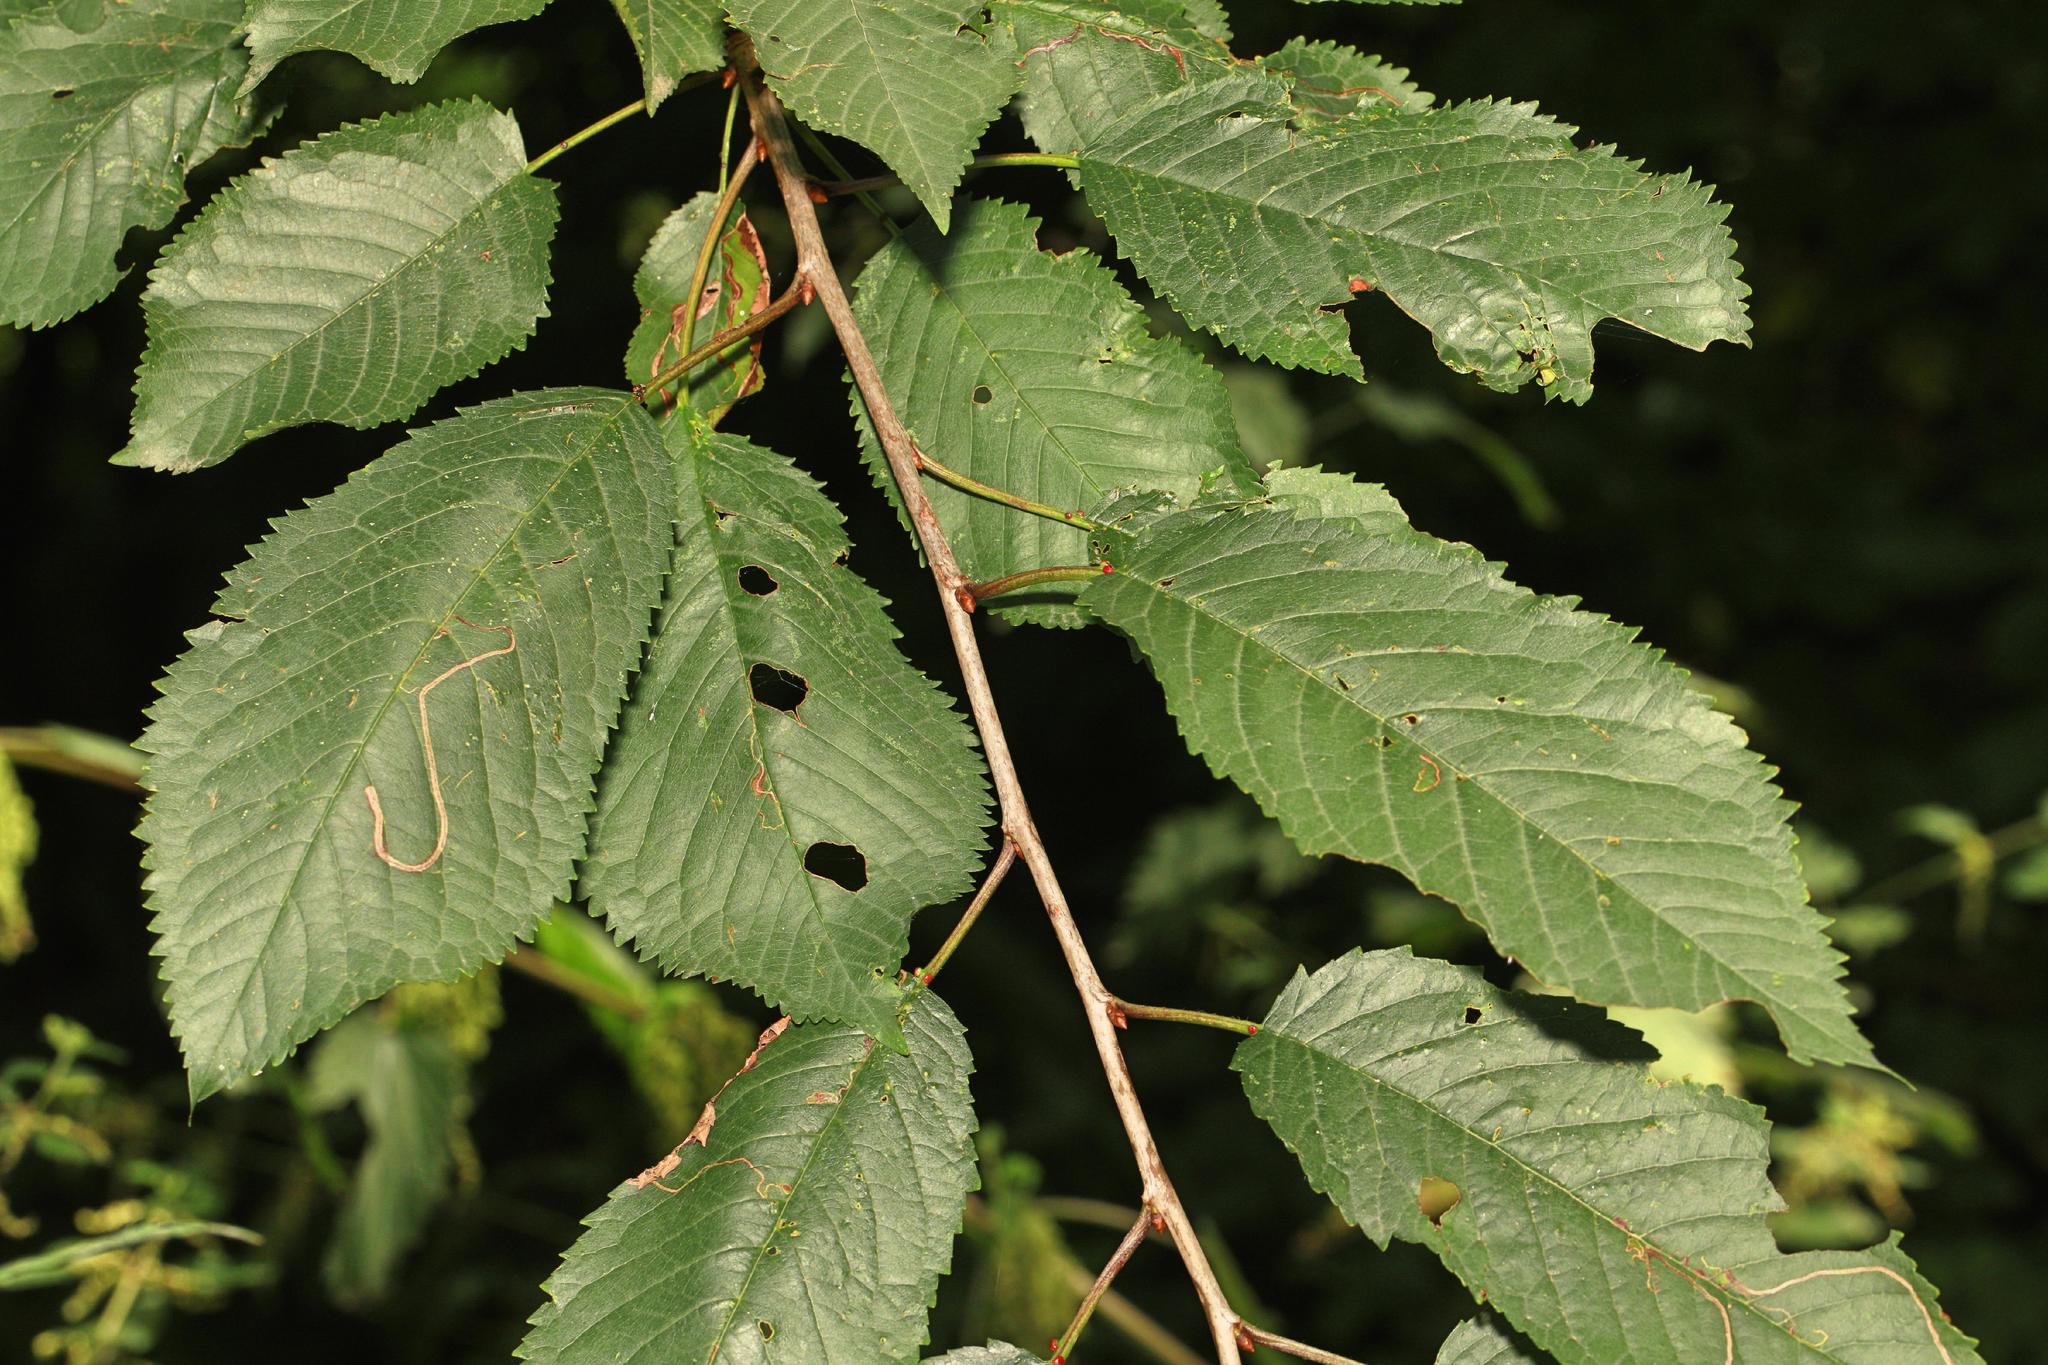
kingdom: Plantae
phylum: Tracheophyta
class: Magnoliopsida
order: Rosales
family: Rosaceae
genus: Prunus
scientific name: Prunus avium
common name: Sweet cherry
